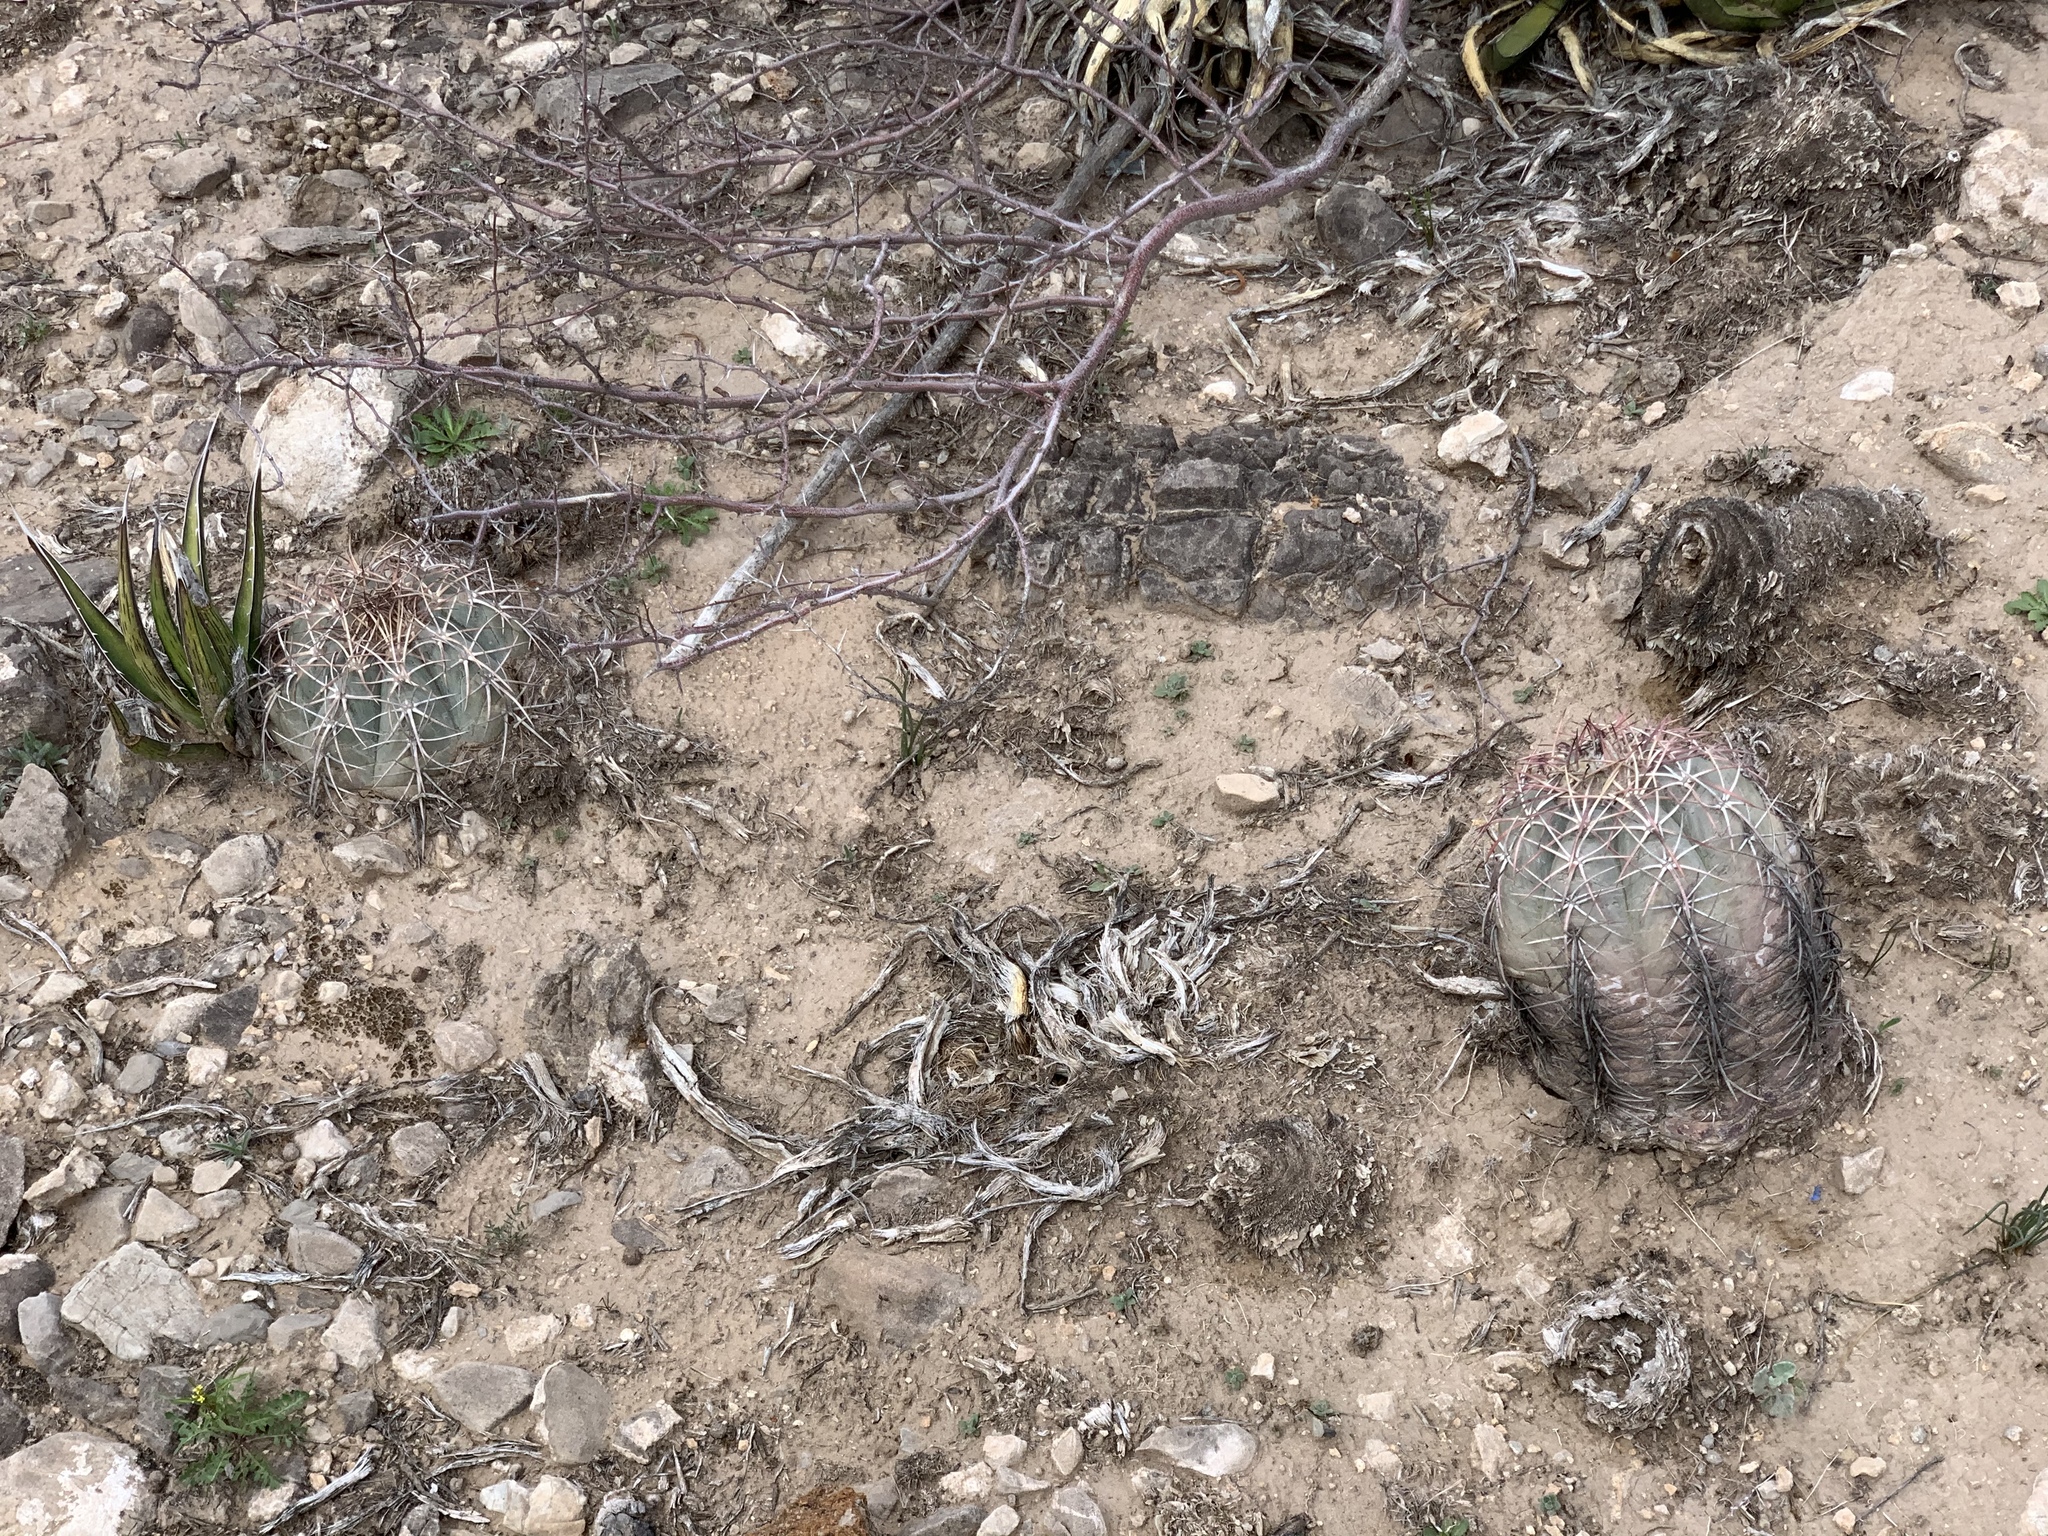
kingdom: Plantae
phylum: Tracheophyta
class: Magnoliopsida
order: Caryophyllales
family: Cactaceae
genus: Echinocactus
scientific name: Echinocactus horizonthalonius
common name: Devilshead
